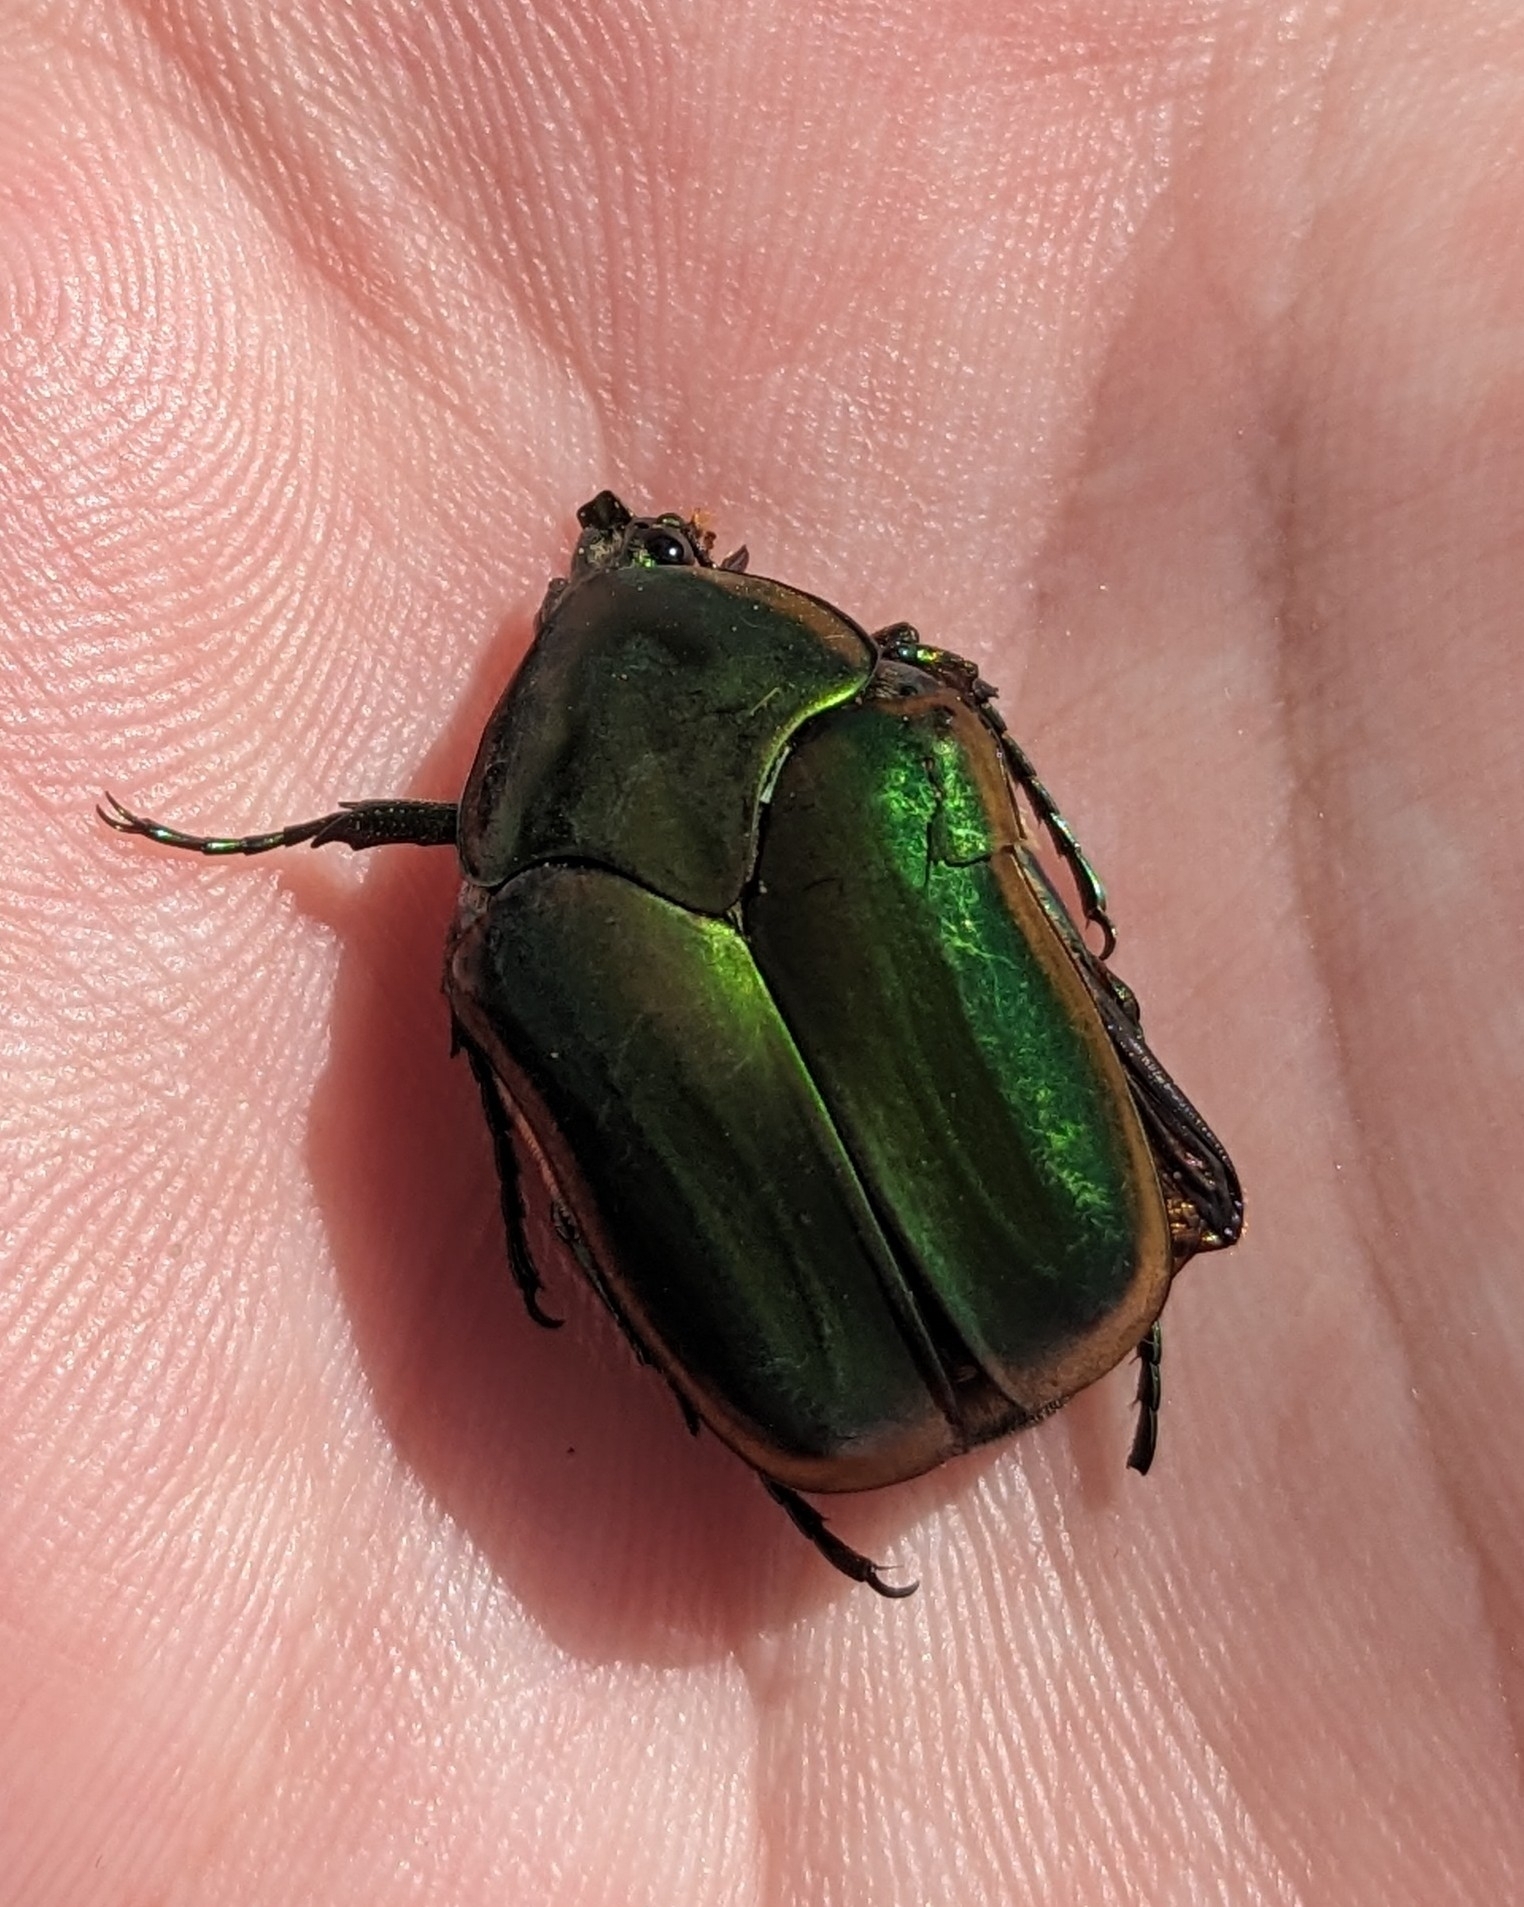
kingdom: Animalia
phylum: Arthropoda
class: Insecta
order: Coleoptera
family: Scarabaeidae
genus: Cotinis
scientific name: Cotinis nitida
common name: Common green june beetle
